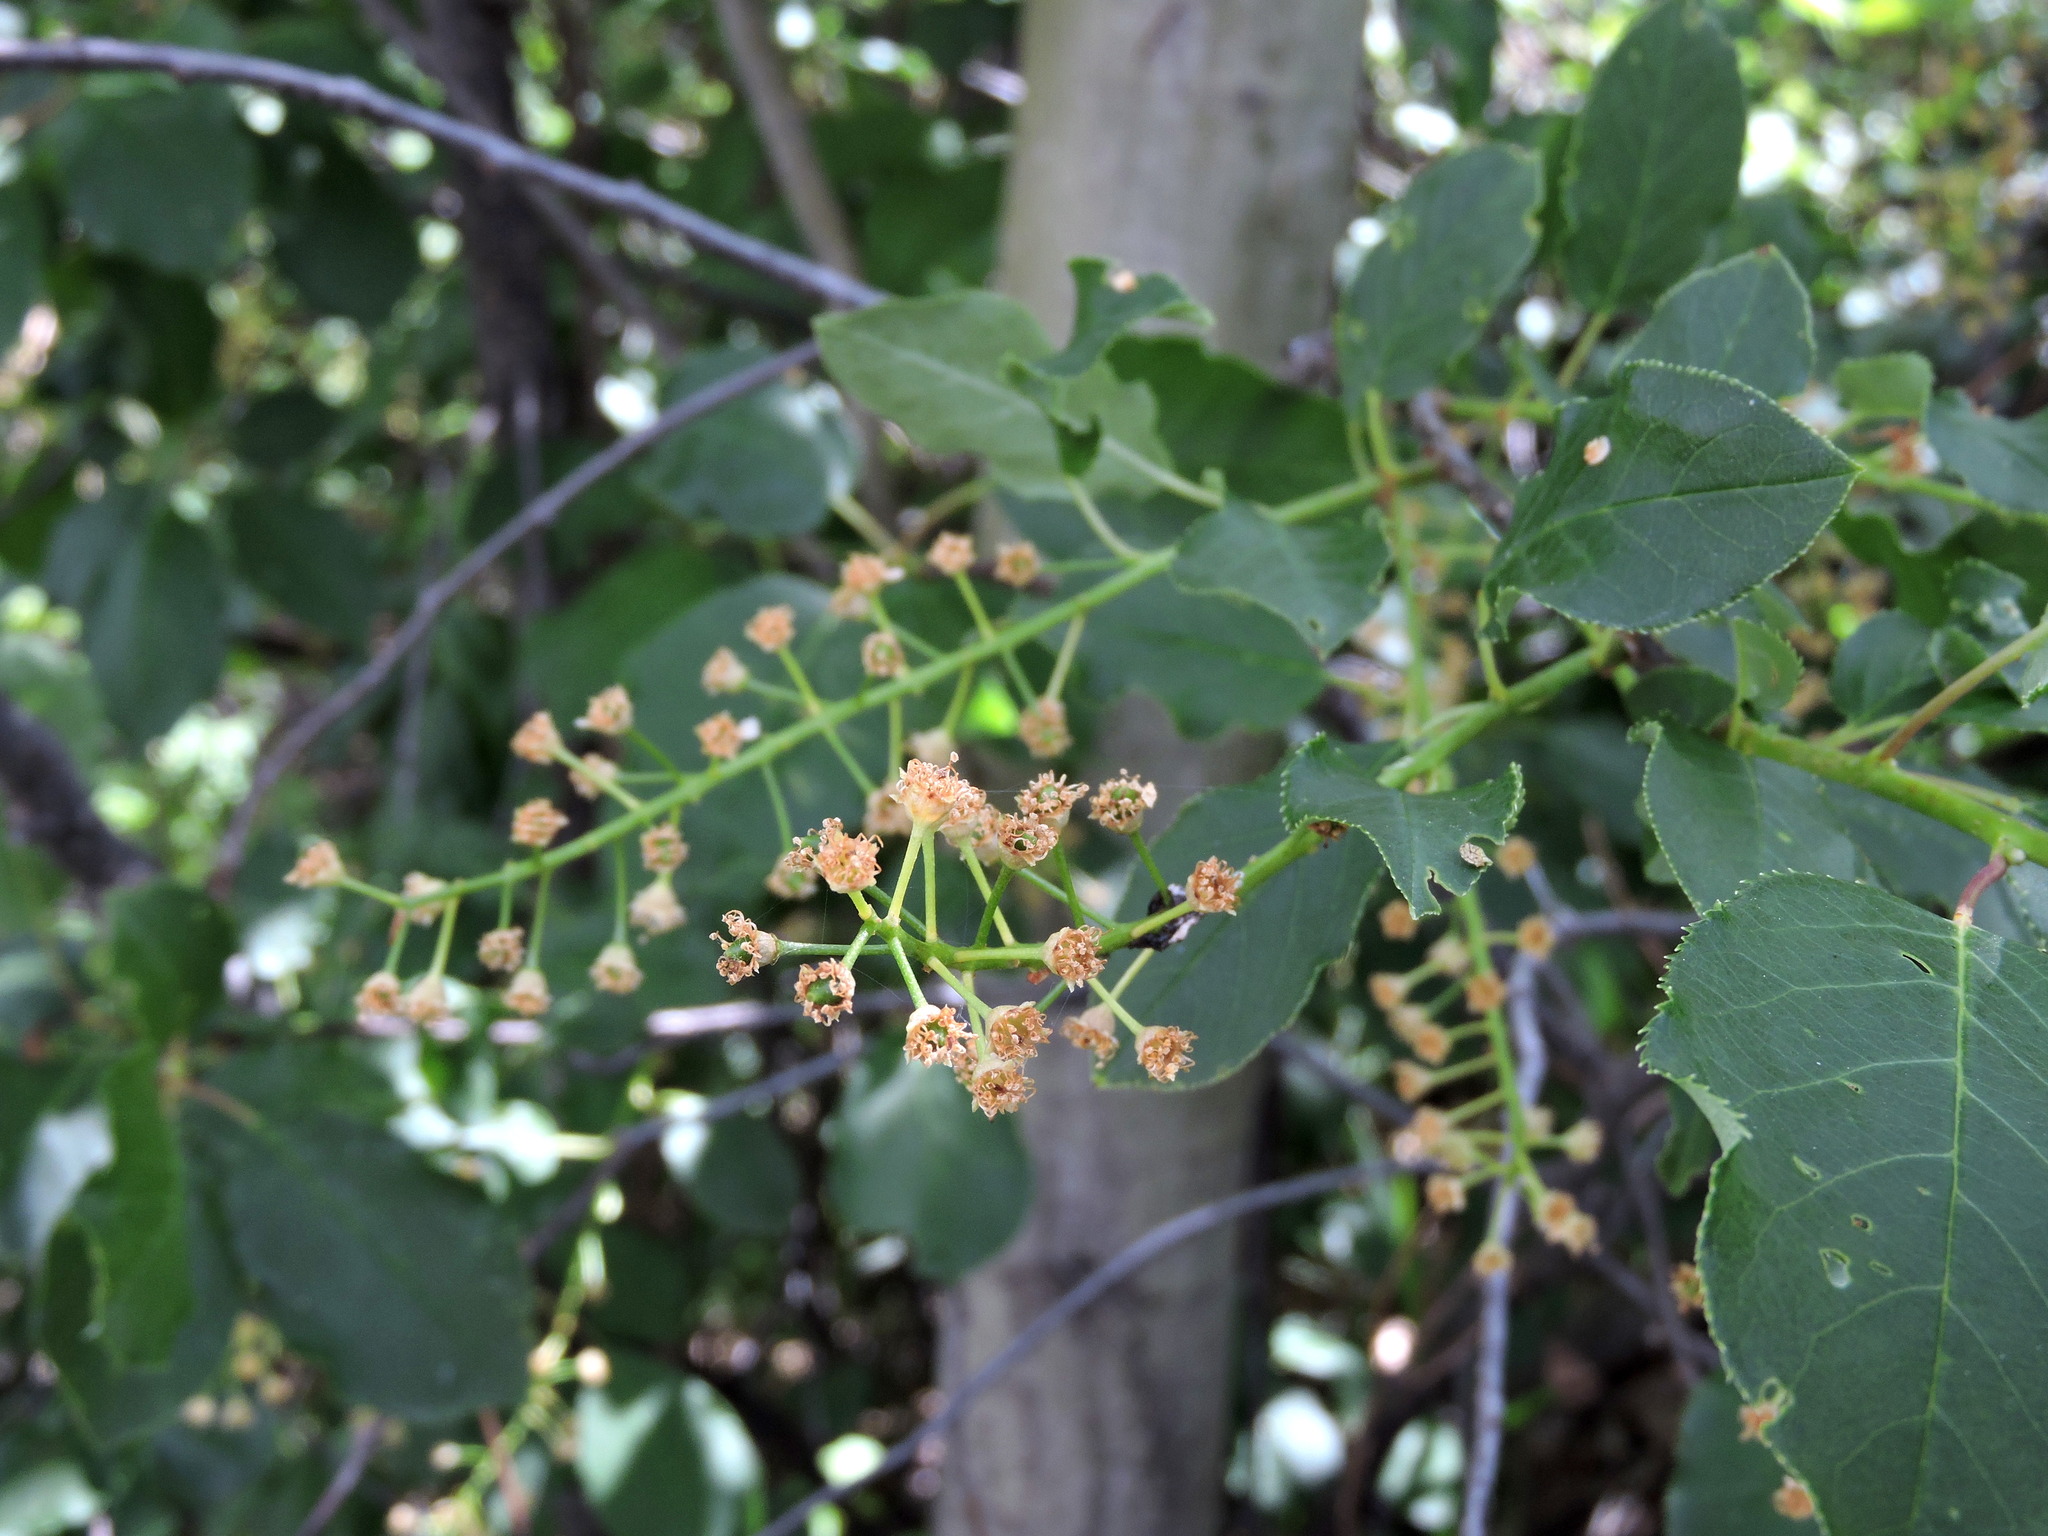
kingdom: Plantae
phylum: Tracheophyta
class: Magnoliopsida
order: Rosales
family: Rosaceae
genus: Prunus
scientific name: Prunus virginiana
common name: Chokecherry
